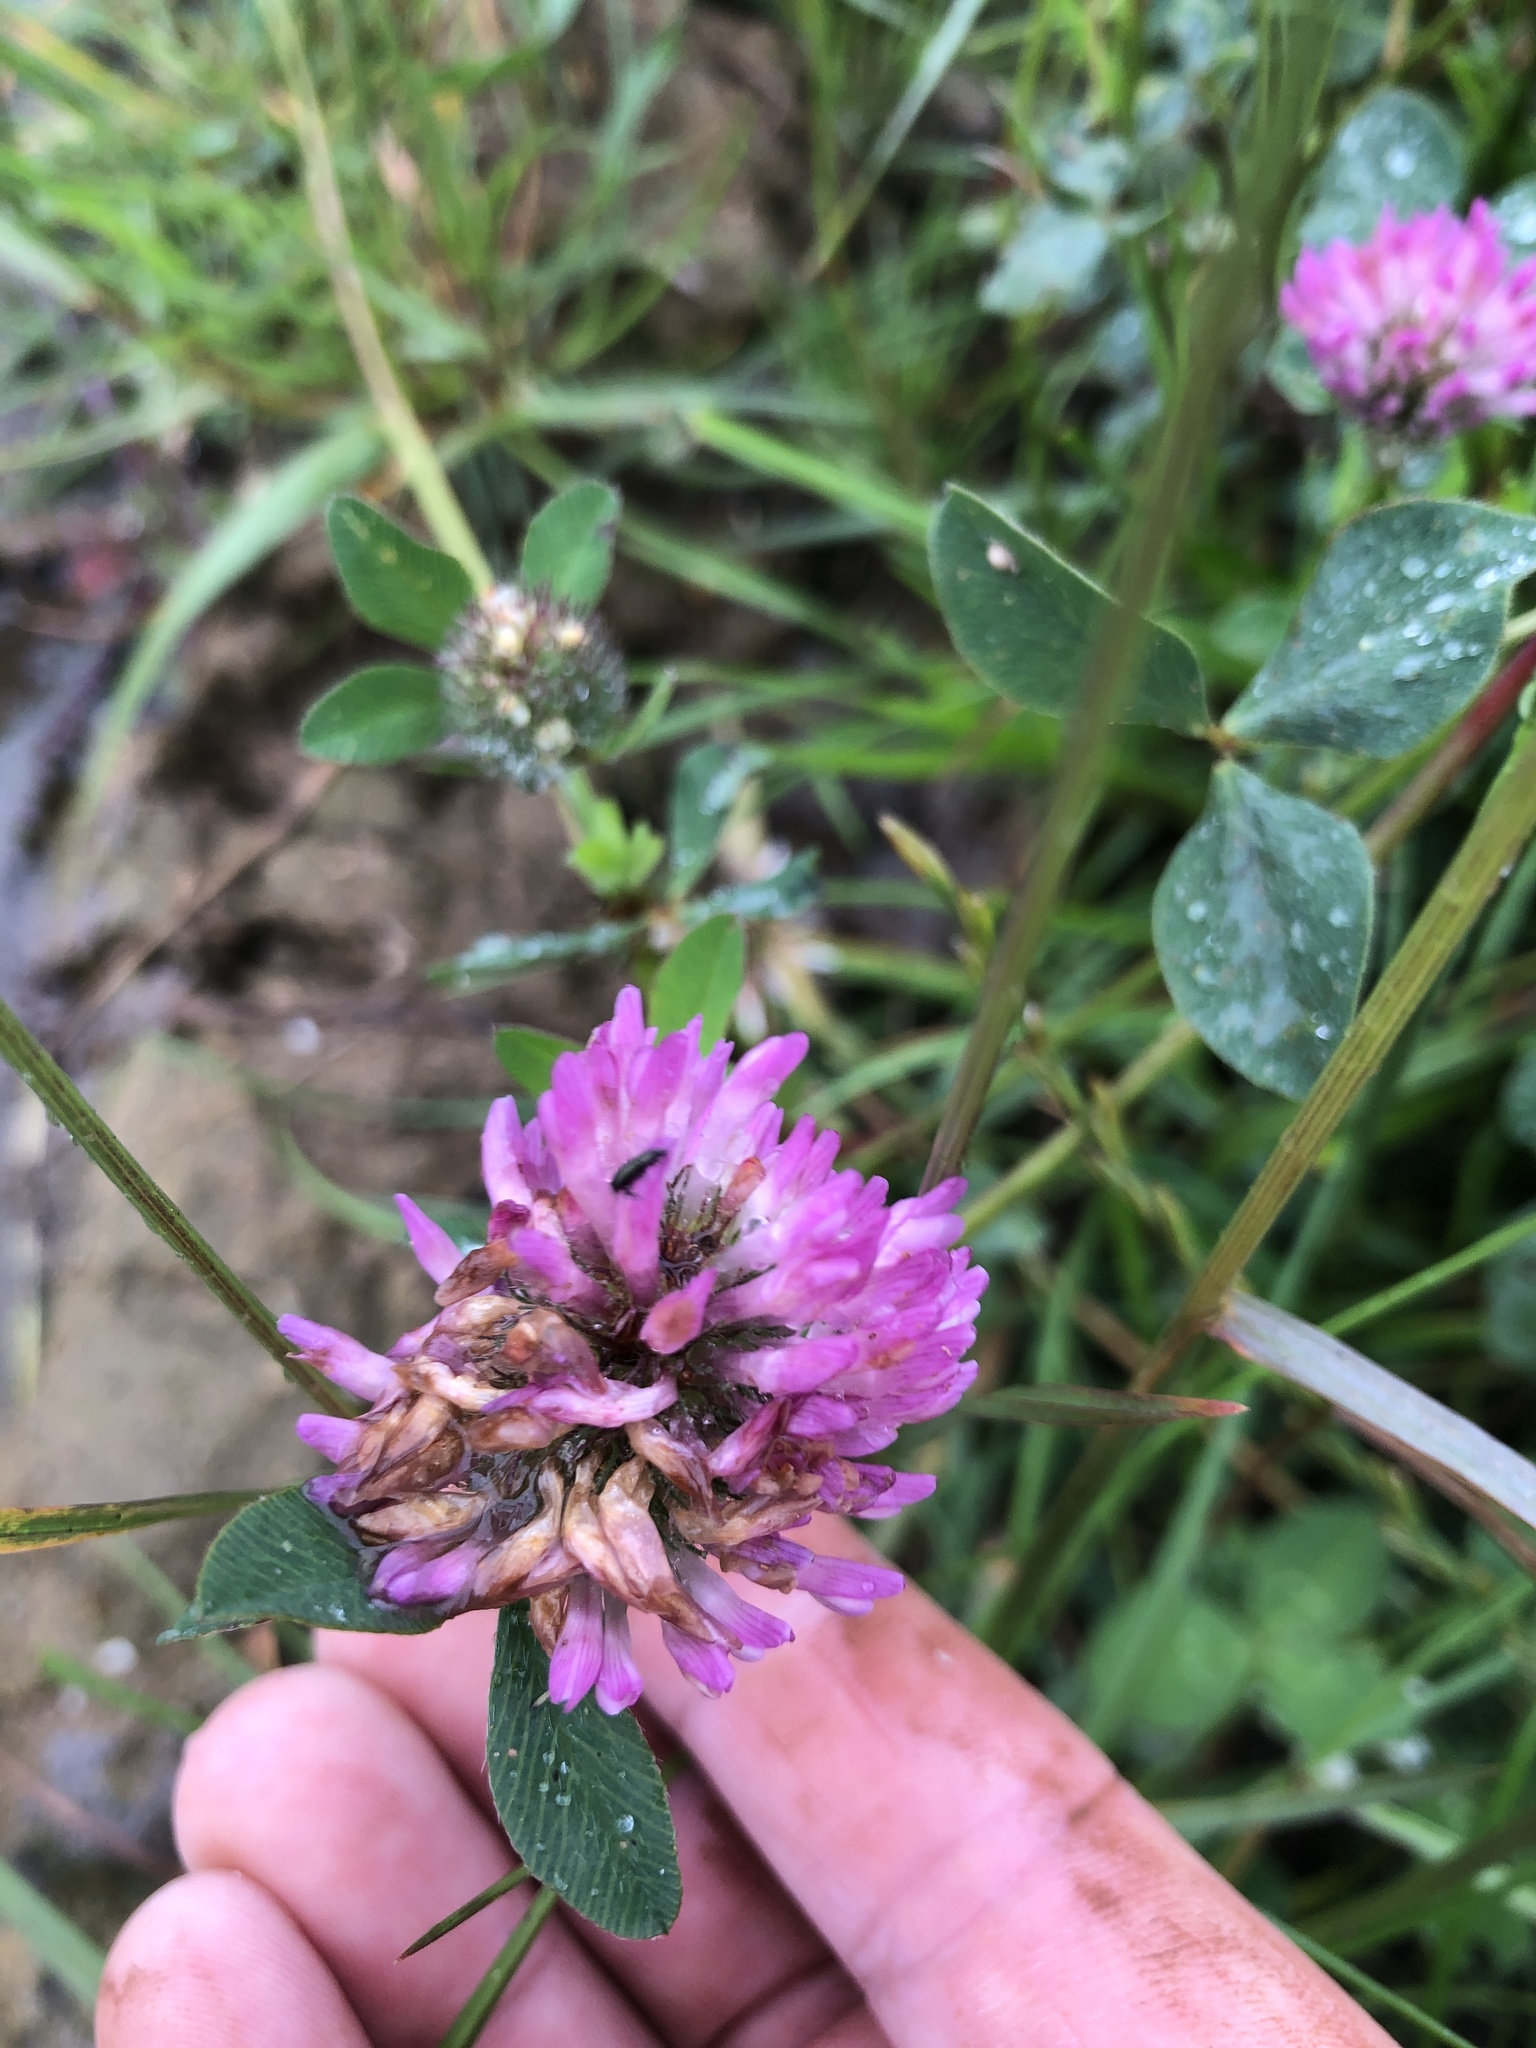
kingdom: Plantae
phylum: Tracheophyta
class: Magnoliopsida
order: Fabales
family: Fabaceae
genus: Trifolium
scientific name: Trifolium pratense
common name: Red clover
